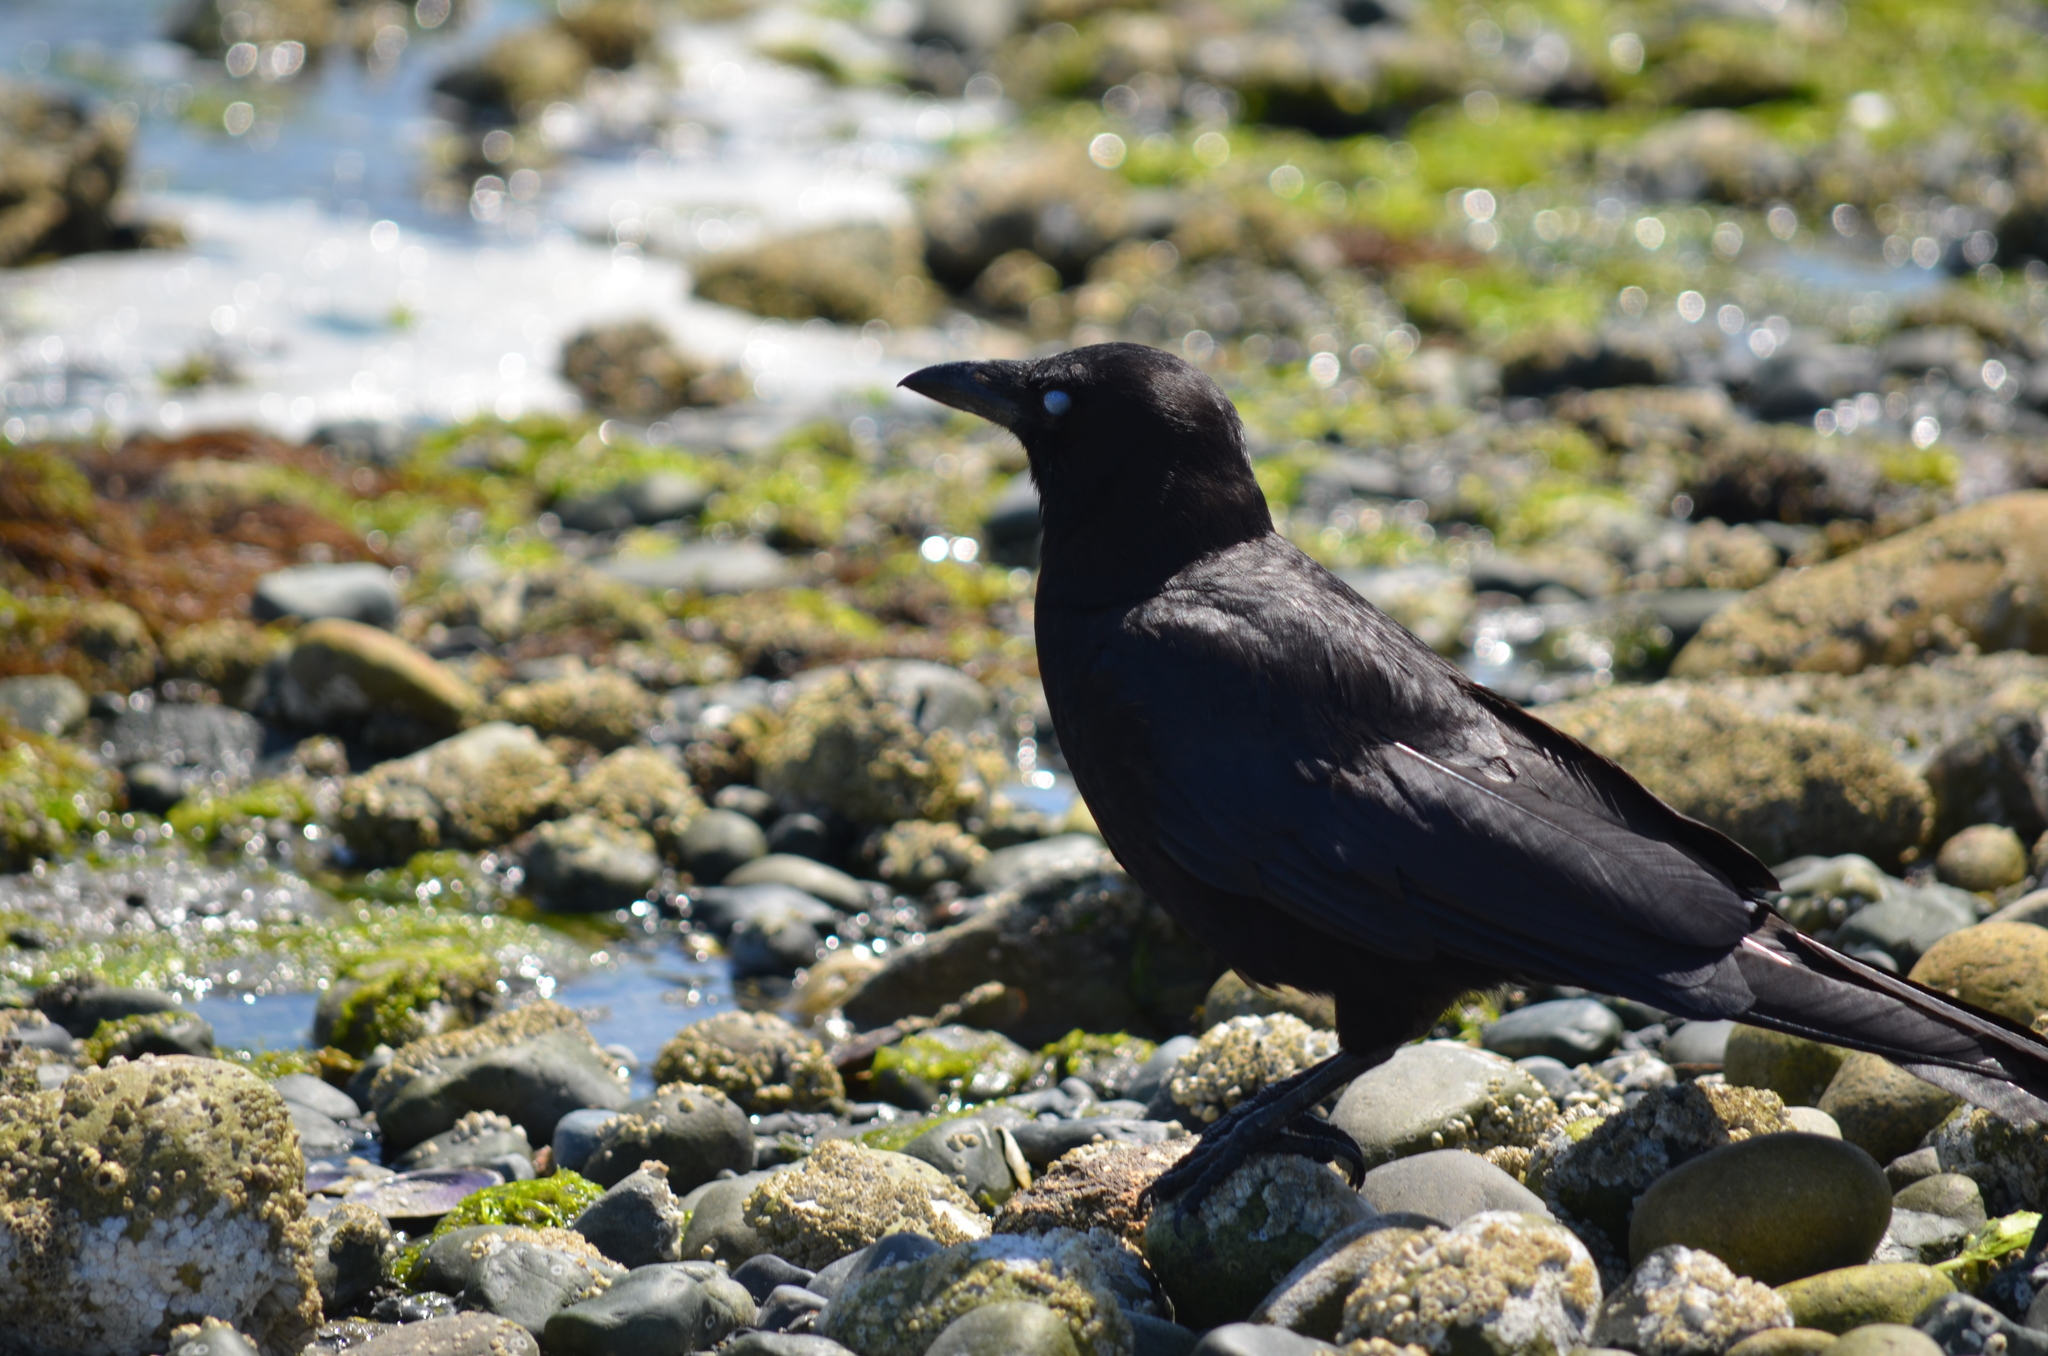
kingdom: Animalia
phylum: Chordata
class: Aves
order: Passeriformes
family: Corvidae
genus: Corvus
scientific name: Corvus brachyrhynchos
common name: American crow
